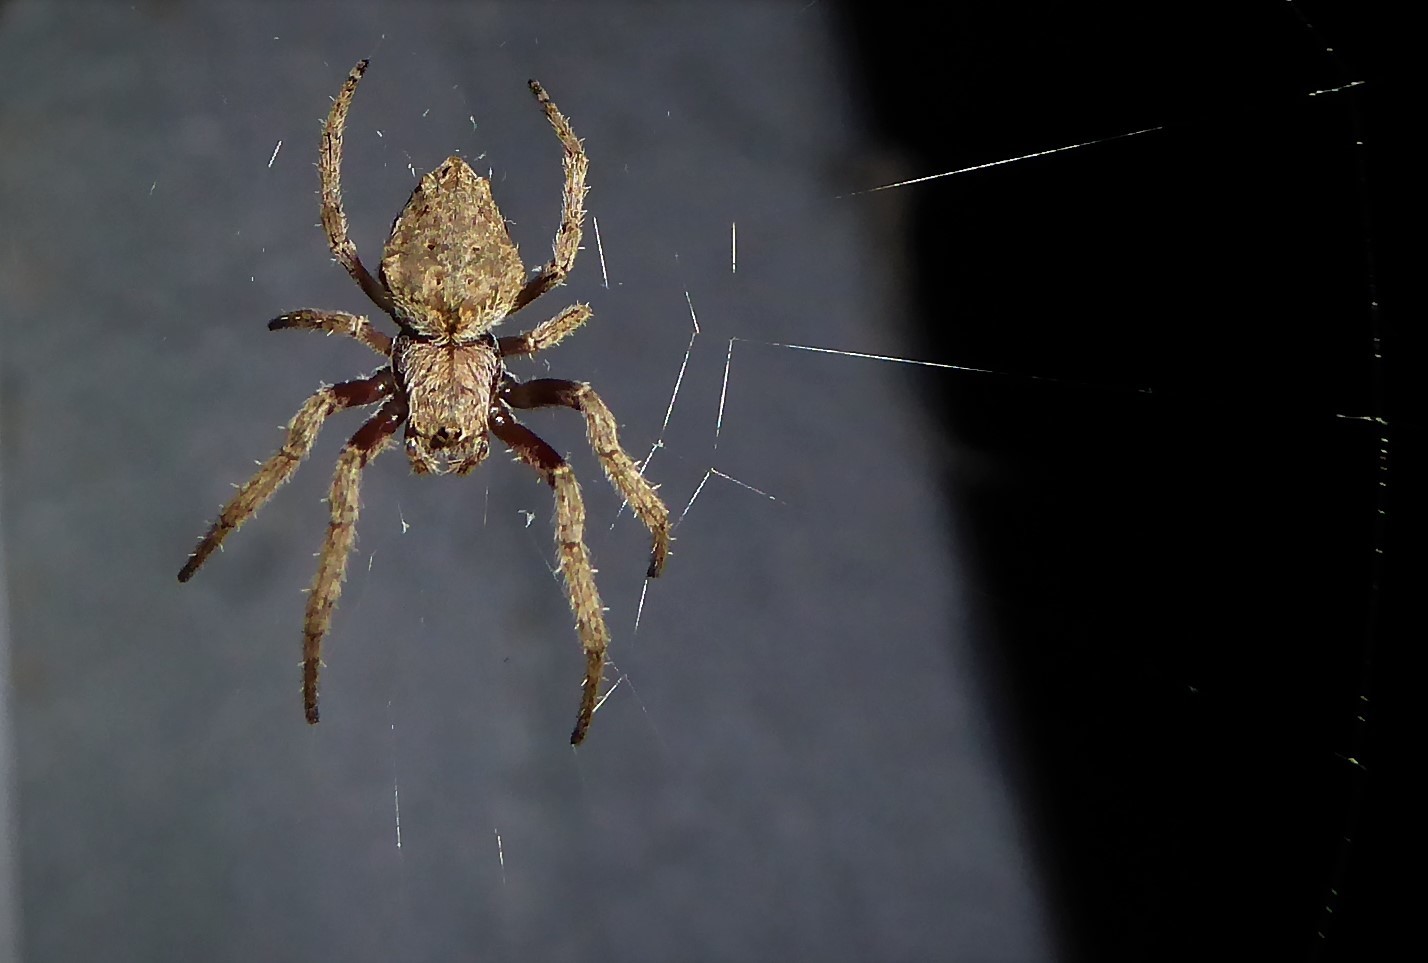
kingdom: Animalia
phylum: Arthropoda
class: Arachnida
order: Araneae
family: Araneidae
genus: Eriophora
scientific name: Eriophora pustulosa
